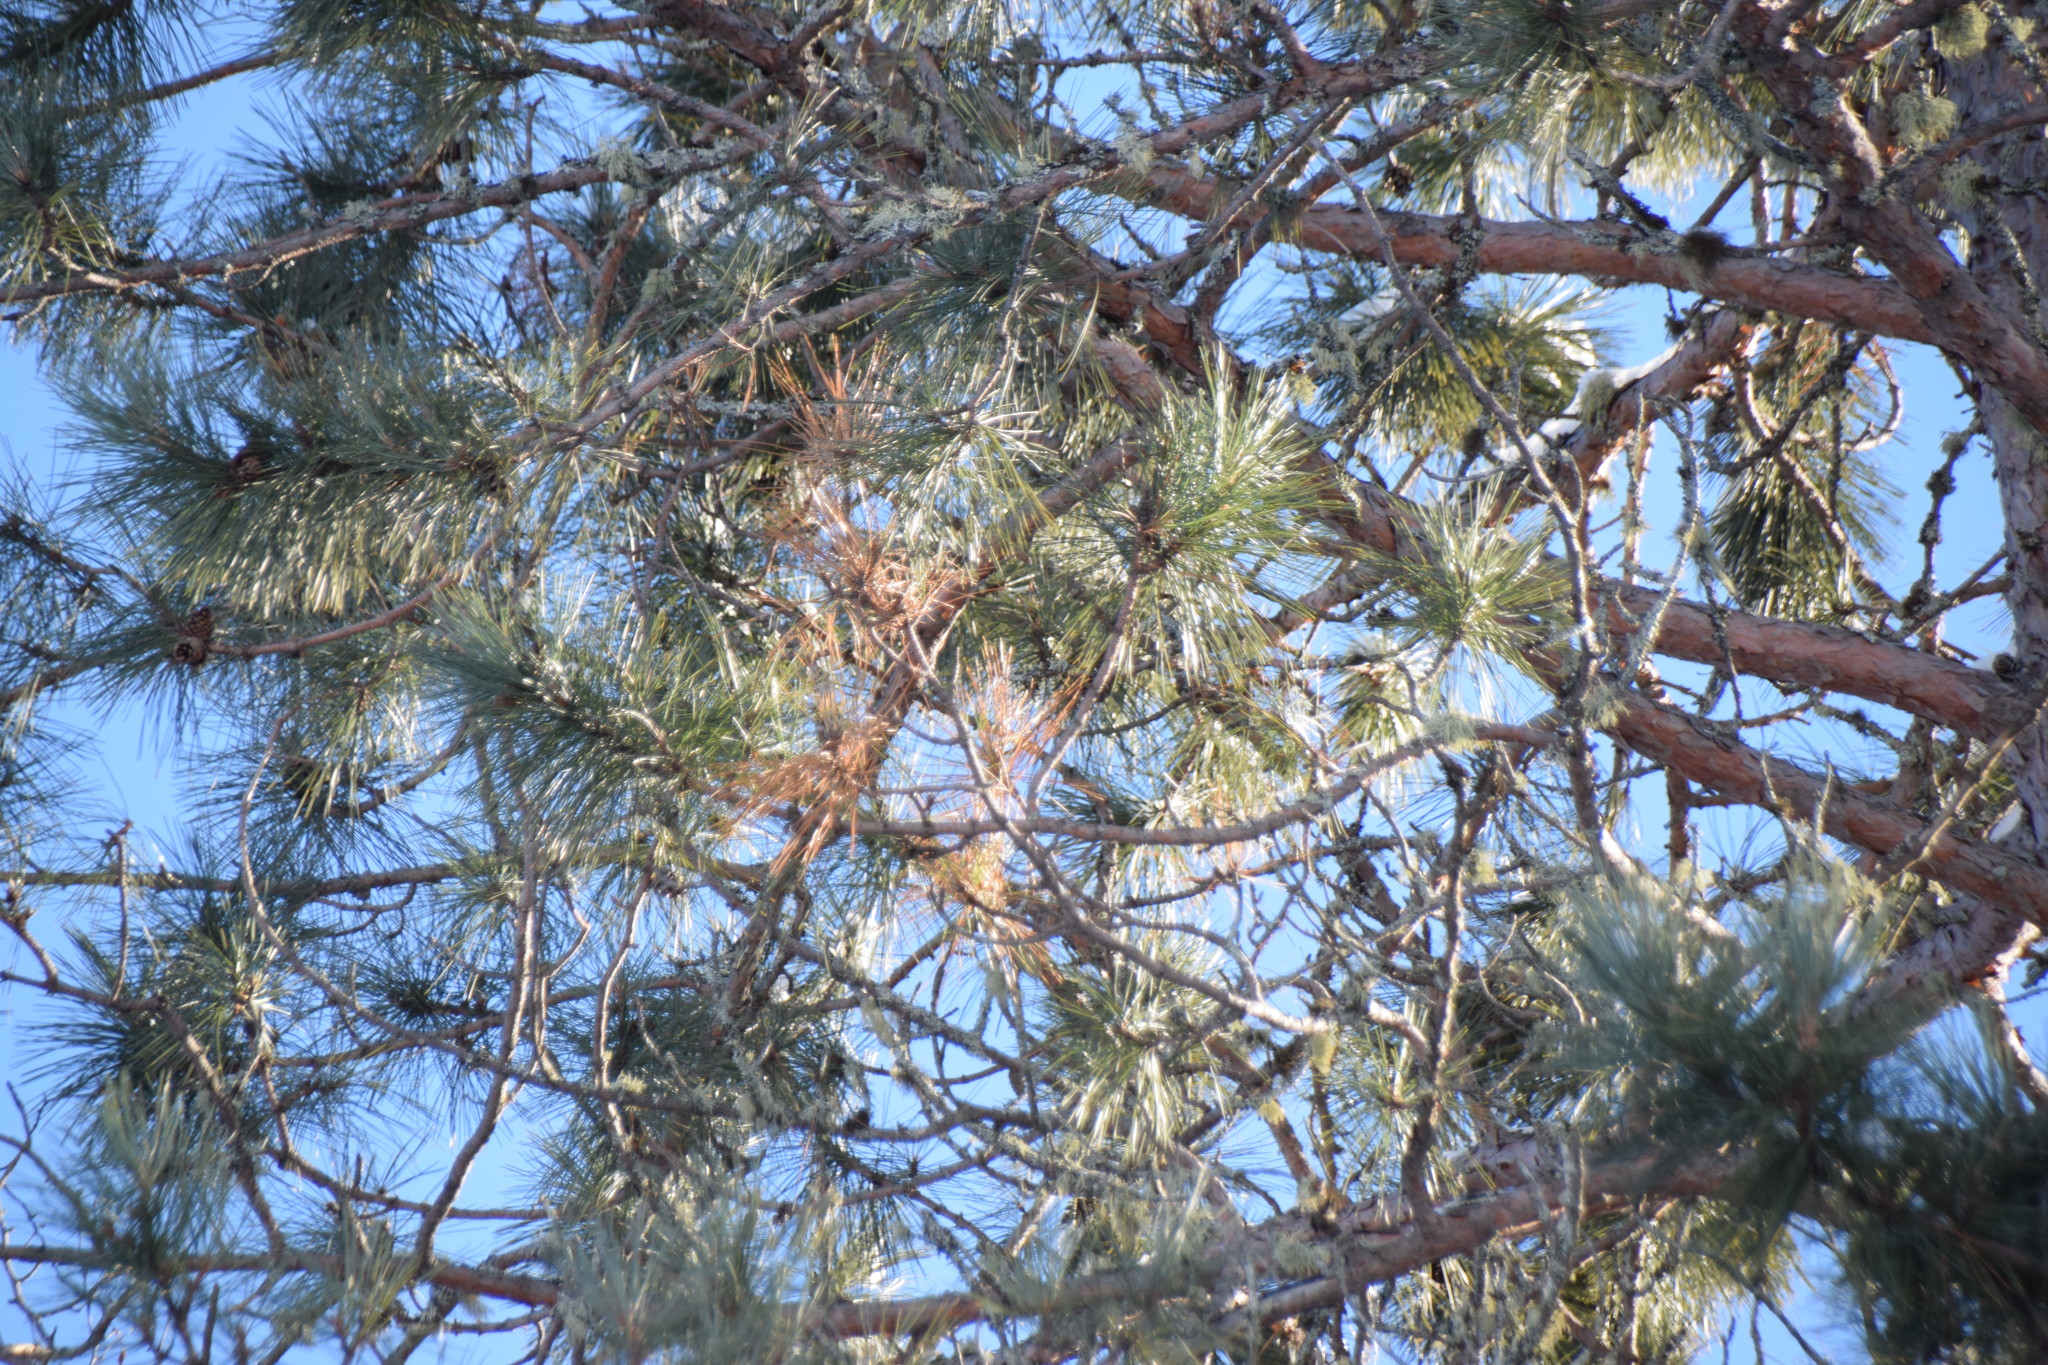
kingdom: Plantae
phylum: Tracheophyta
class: Pinopsida
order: Pinales
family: Pinaceae
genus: Pinus
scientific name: Pinus resinosa
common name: Norway pine
